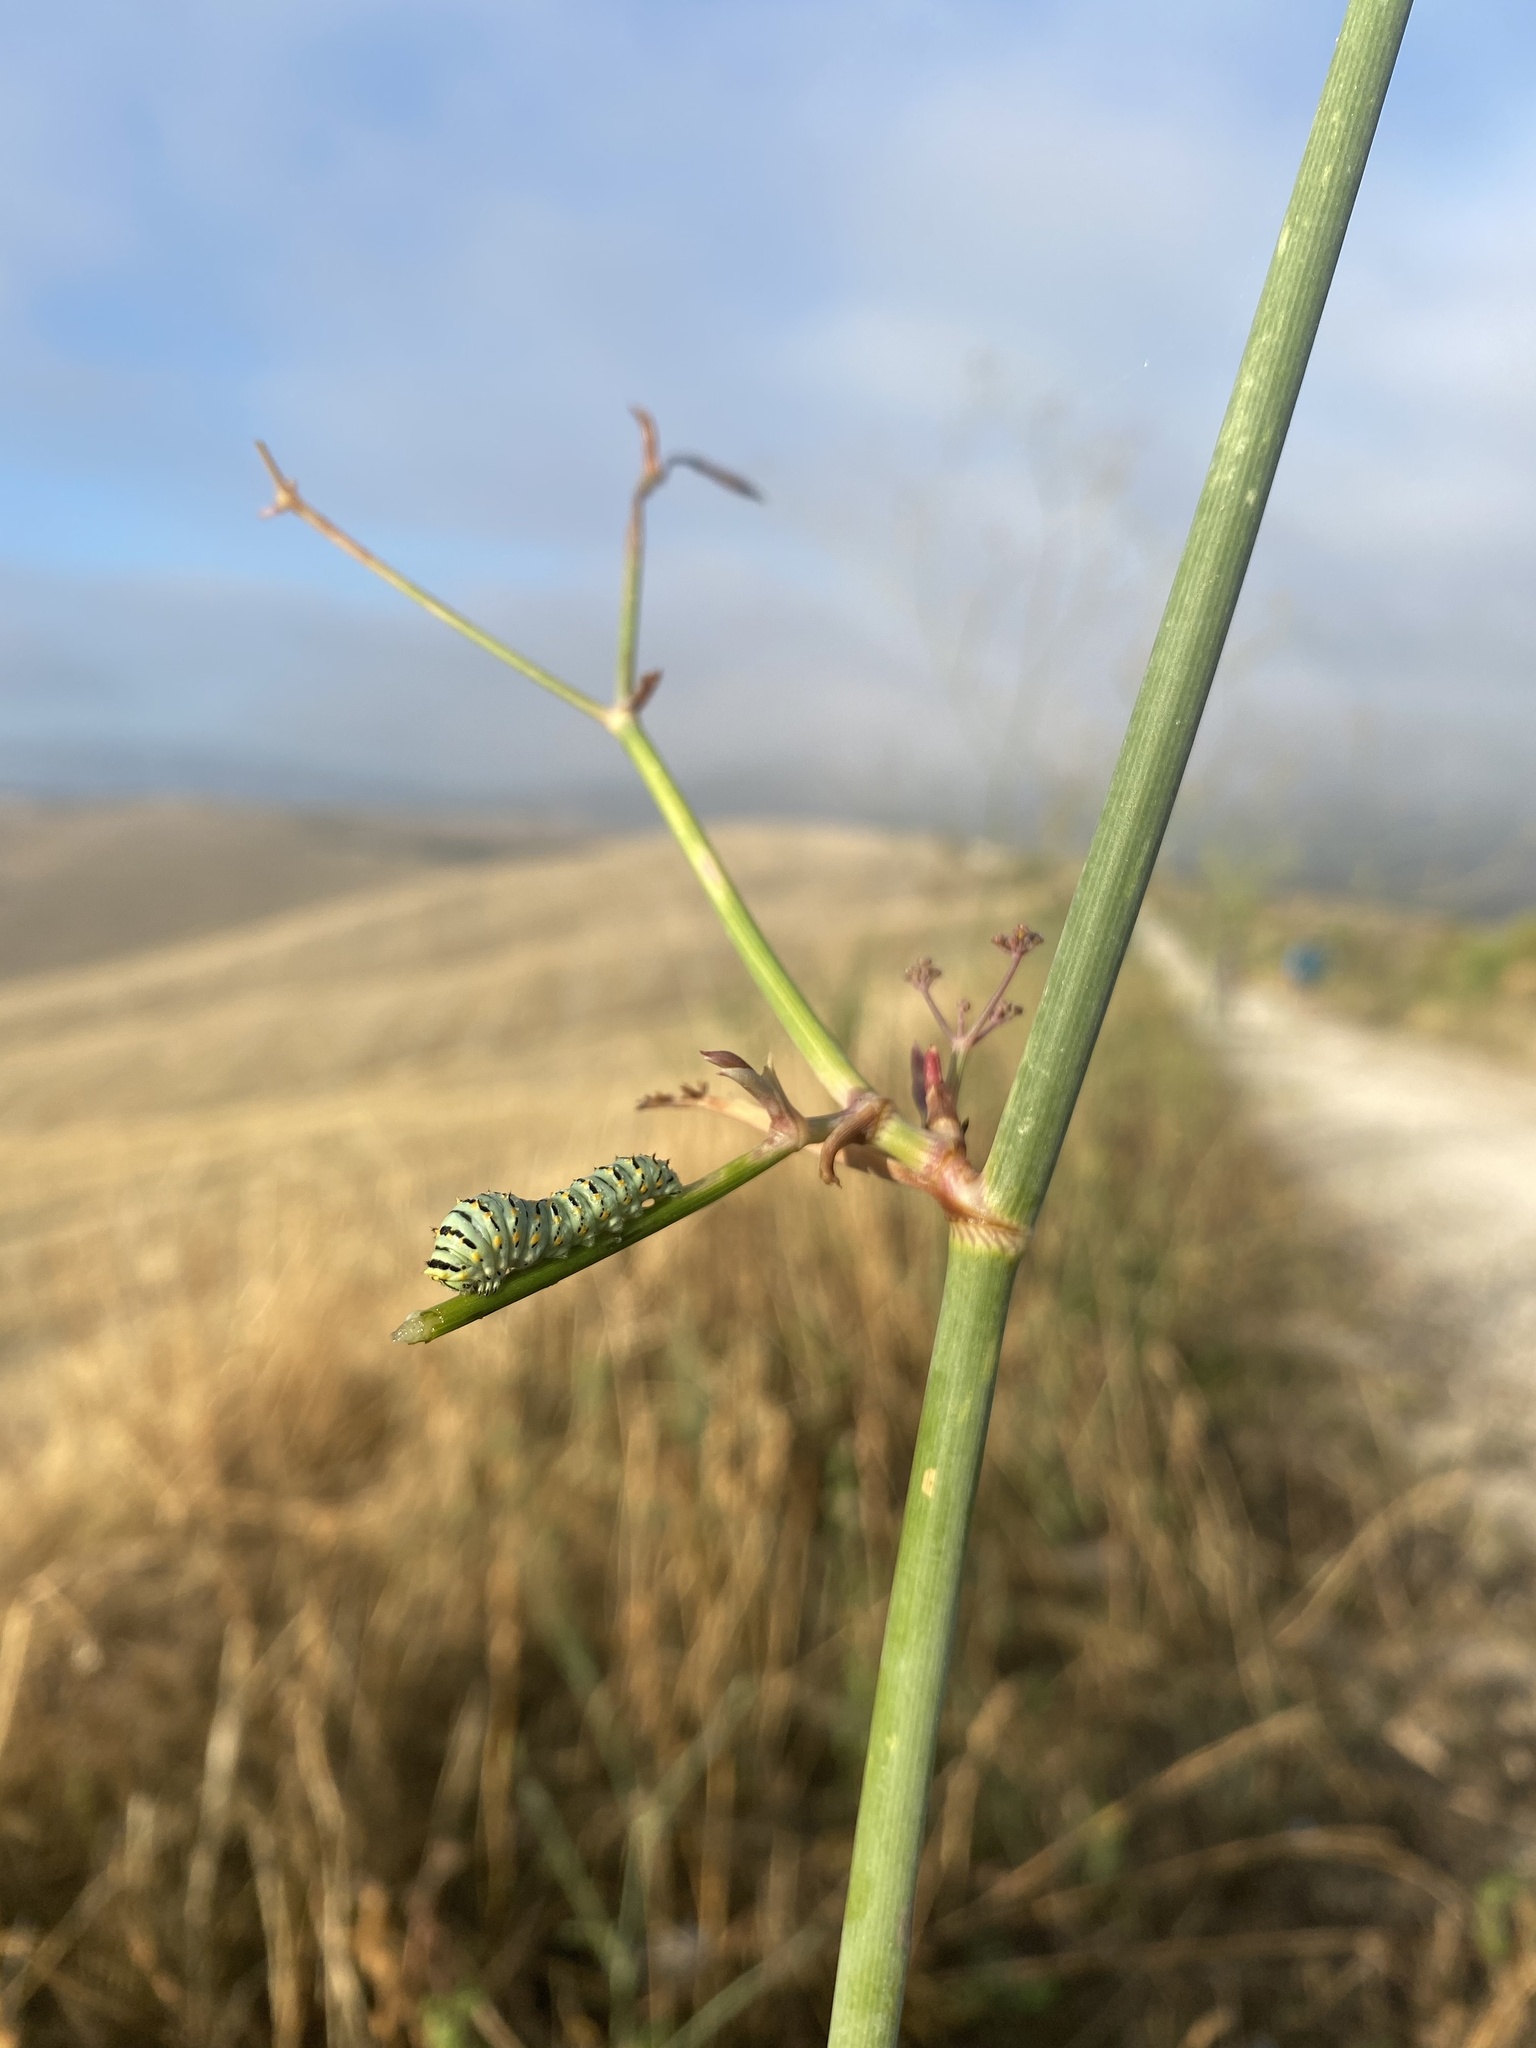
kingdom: Animalia
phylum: Arthropoda
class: Insecta
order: Lepidoptera
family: Papilionidae
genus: Papilio
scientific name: Papilio machaon
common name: Swallowtail
